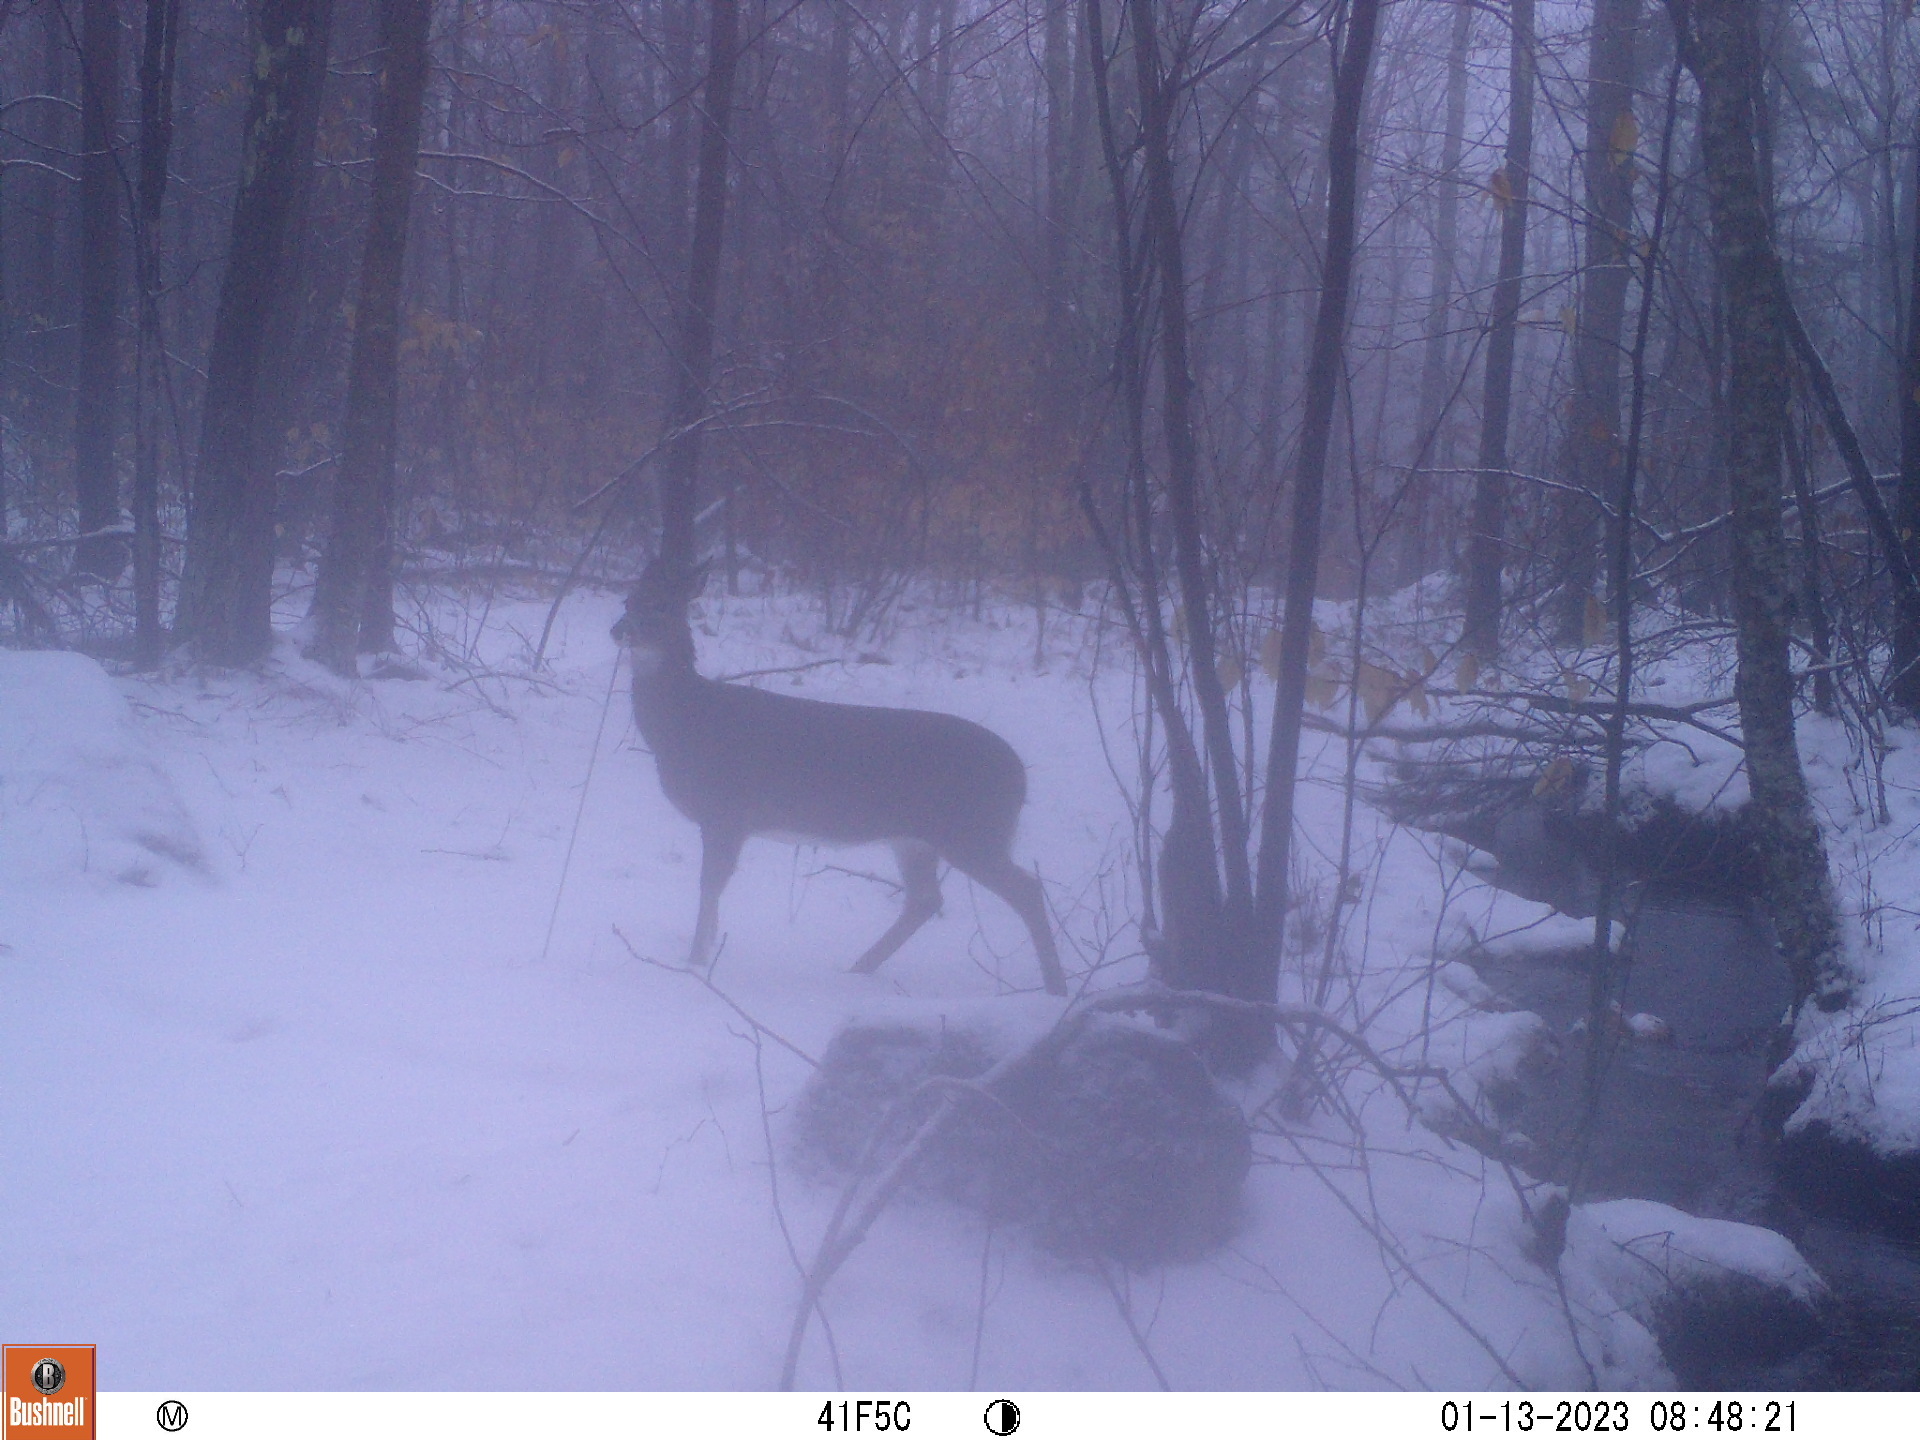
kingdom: Animalia
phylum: Chordata
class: Mammalia
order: Artiodactyla
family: Cervidae
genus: Odocoileus
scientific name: Odocoileus virginianus
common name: White-tailed deer
